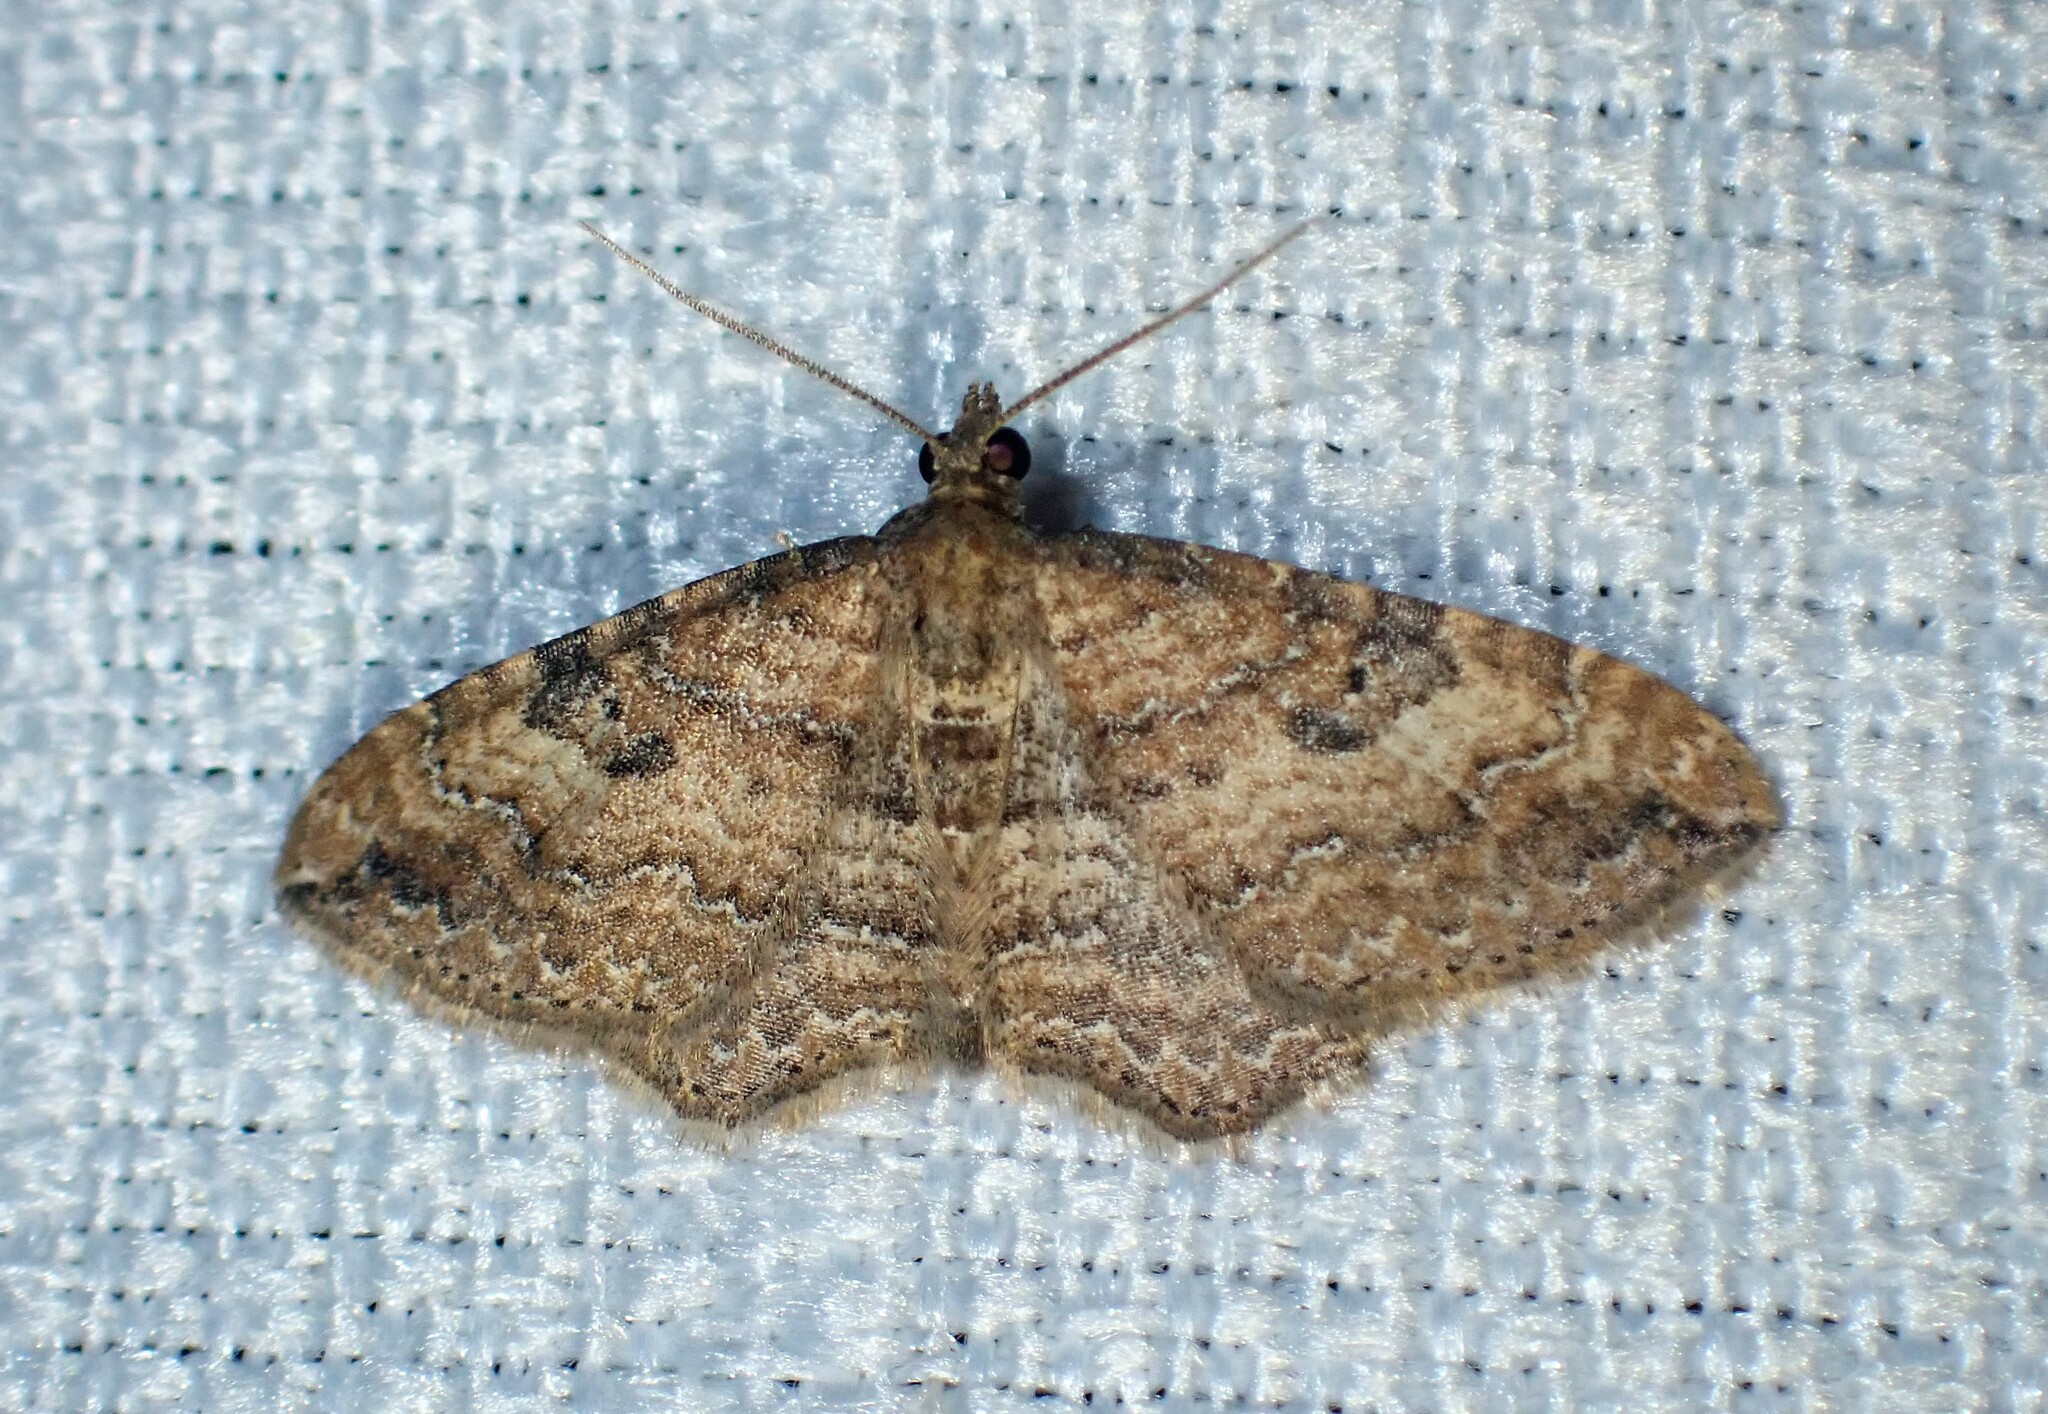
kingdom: Animalia
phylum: Arthropoda
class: Insecta
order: Lepidoptera
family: Geometridae
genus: Orthonama
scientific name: Orthonama obstipata
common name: The gem
